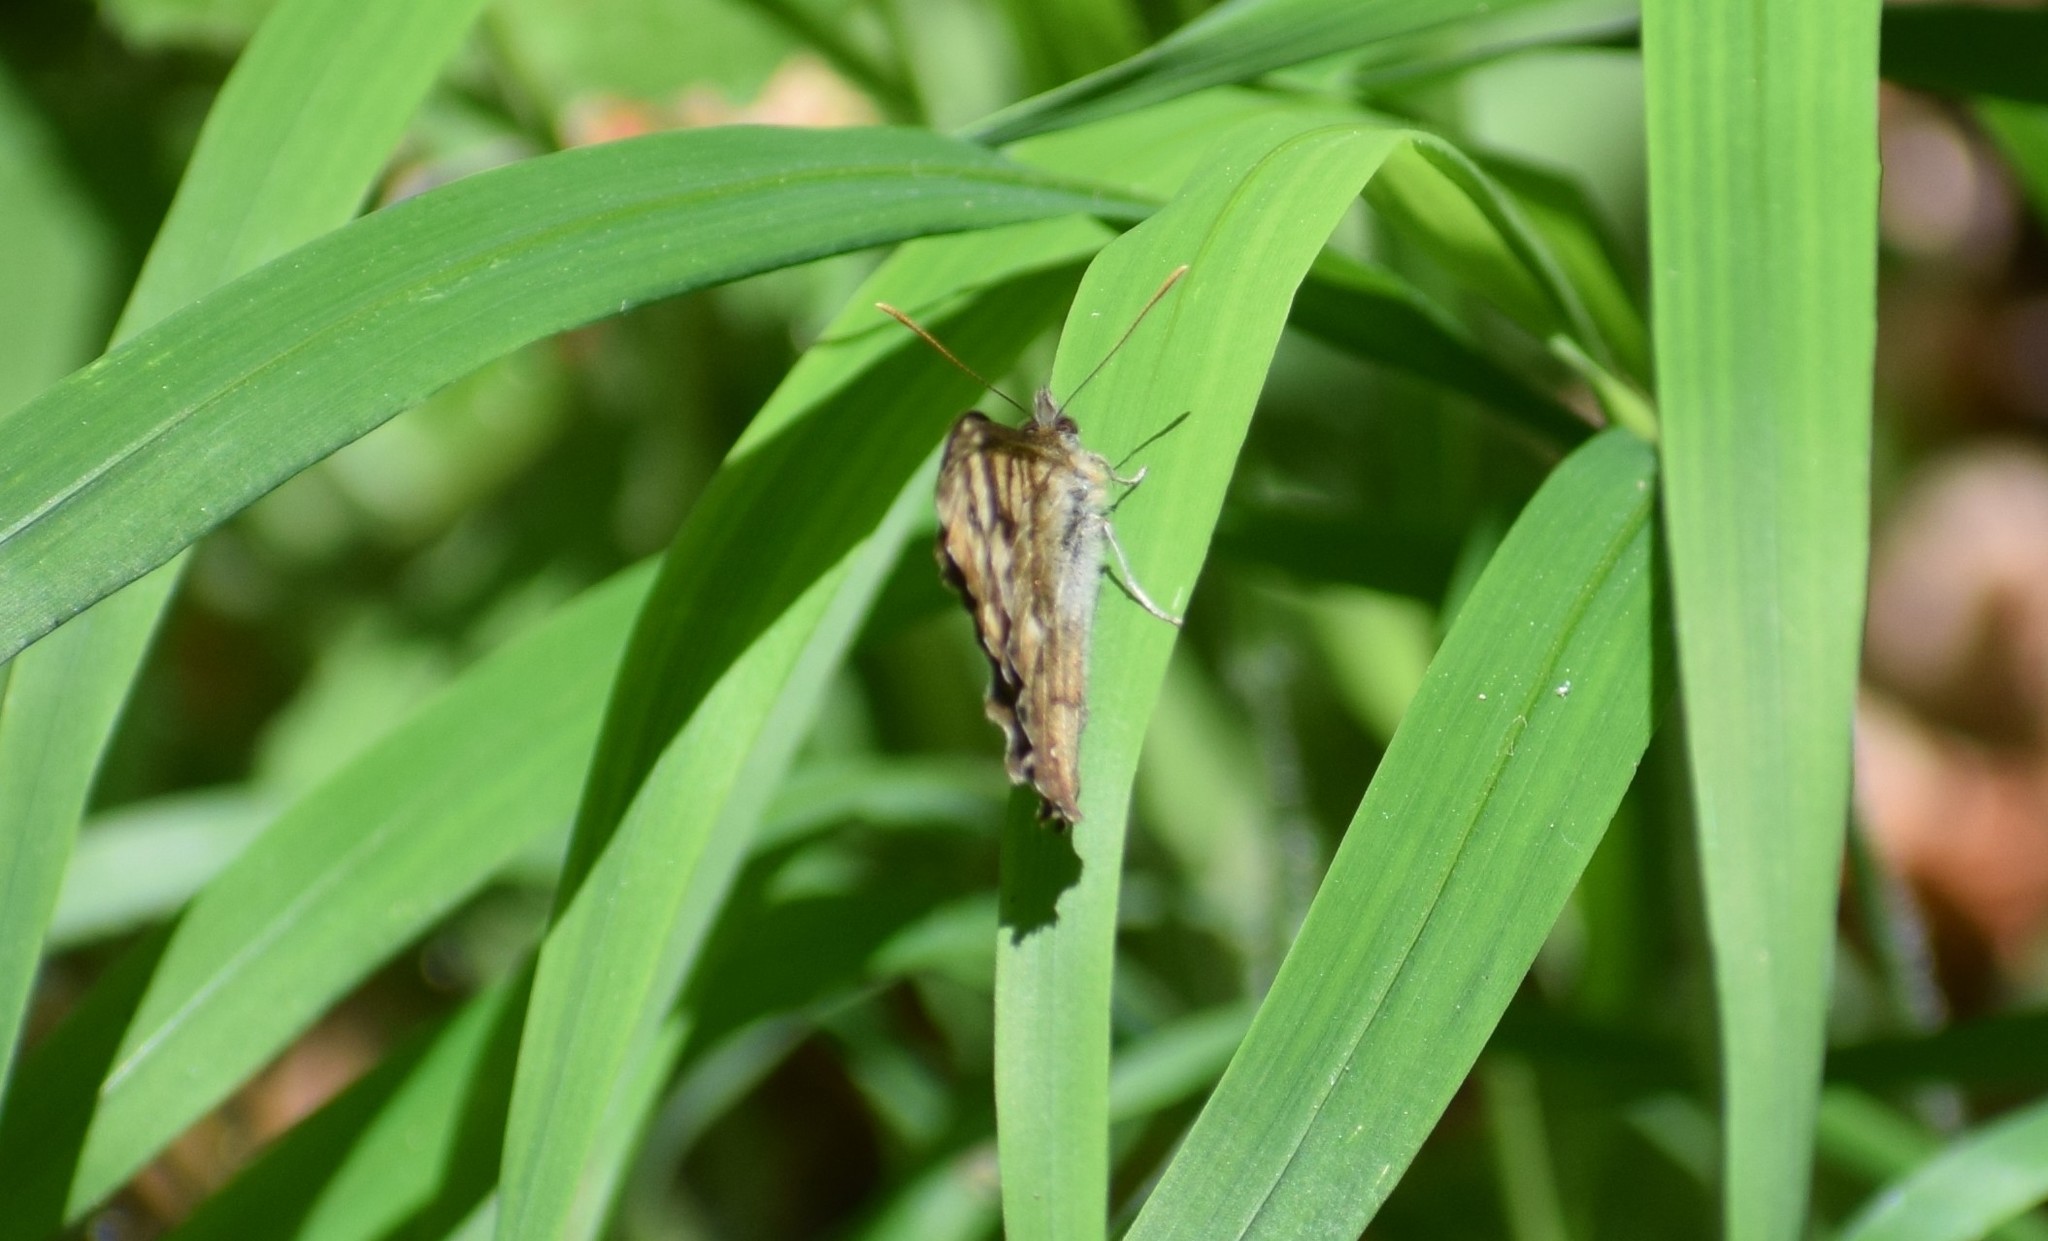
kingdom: Animalia
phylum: Arthropoda
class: Insecta
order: Lepidoptera
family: Nymphalidae
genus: Pararge
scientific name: Pararge aegeria
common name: Speckled wood
